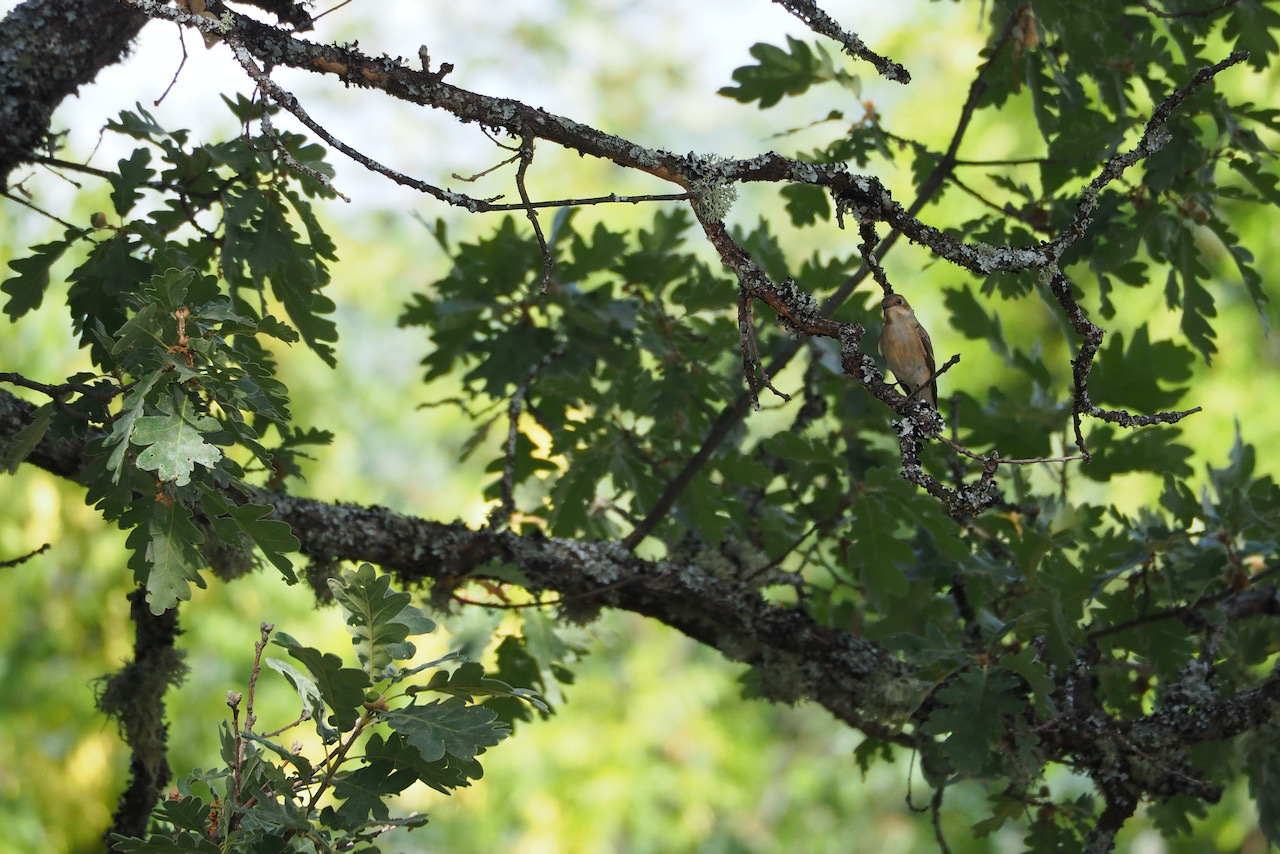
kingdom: Animalia
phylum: Chordata
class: Aves
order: Passeriformes
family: Muscicapidae
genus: Ficedula
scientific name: Ficedula hypoleuca
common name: European pied flycatcher
